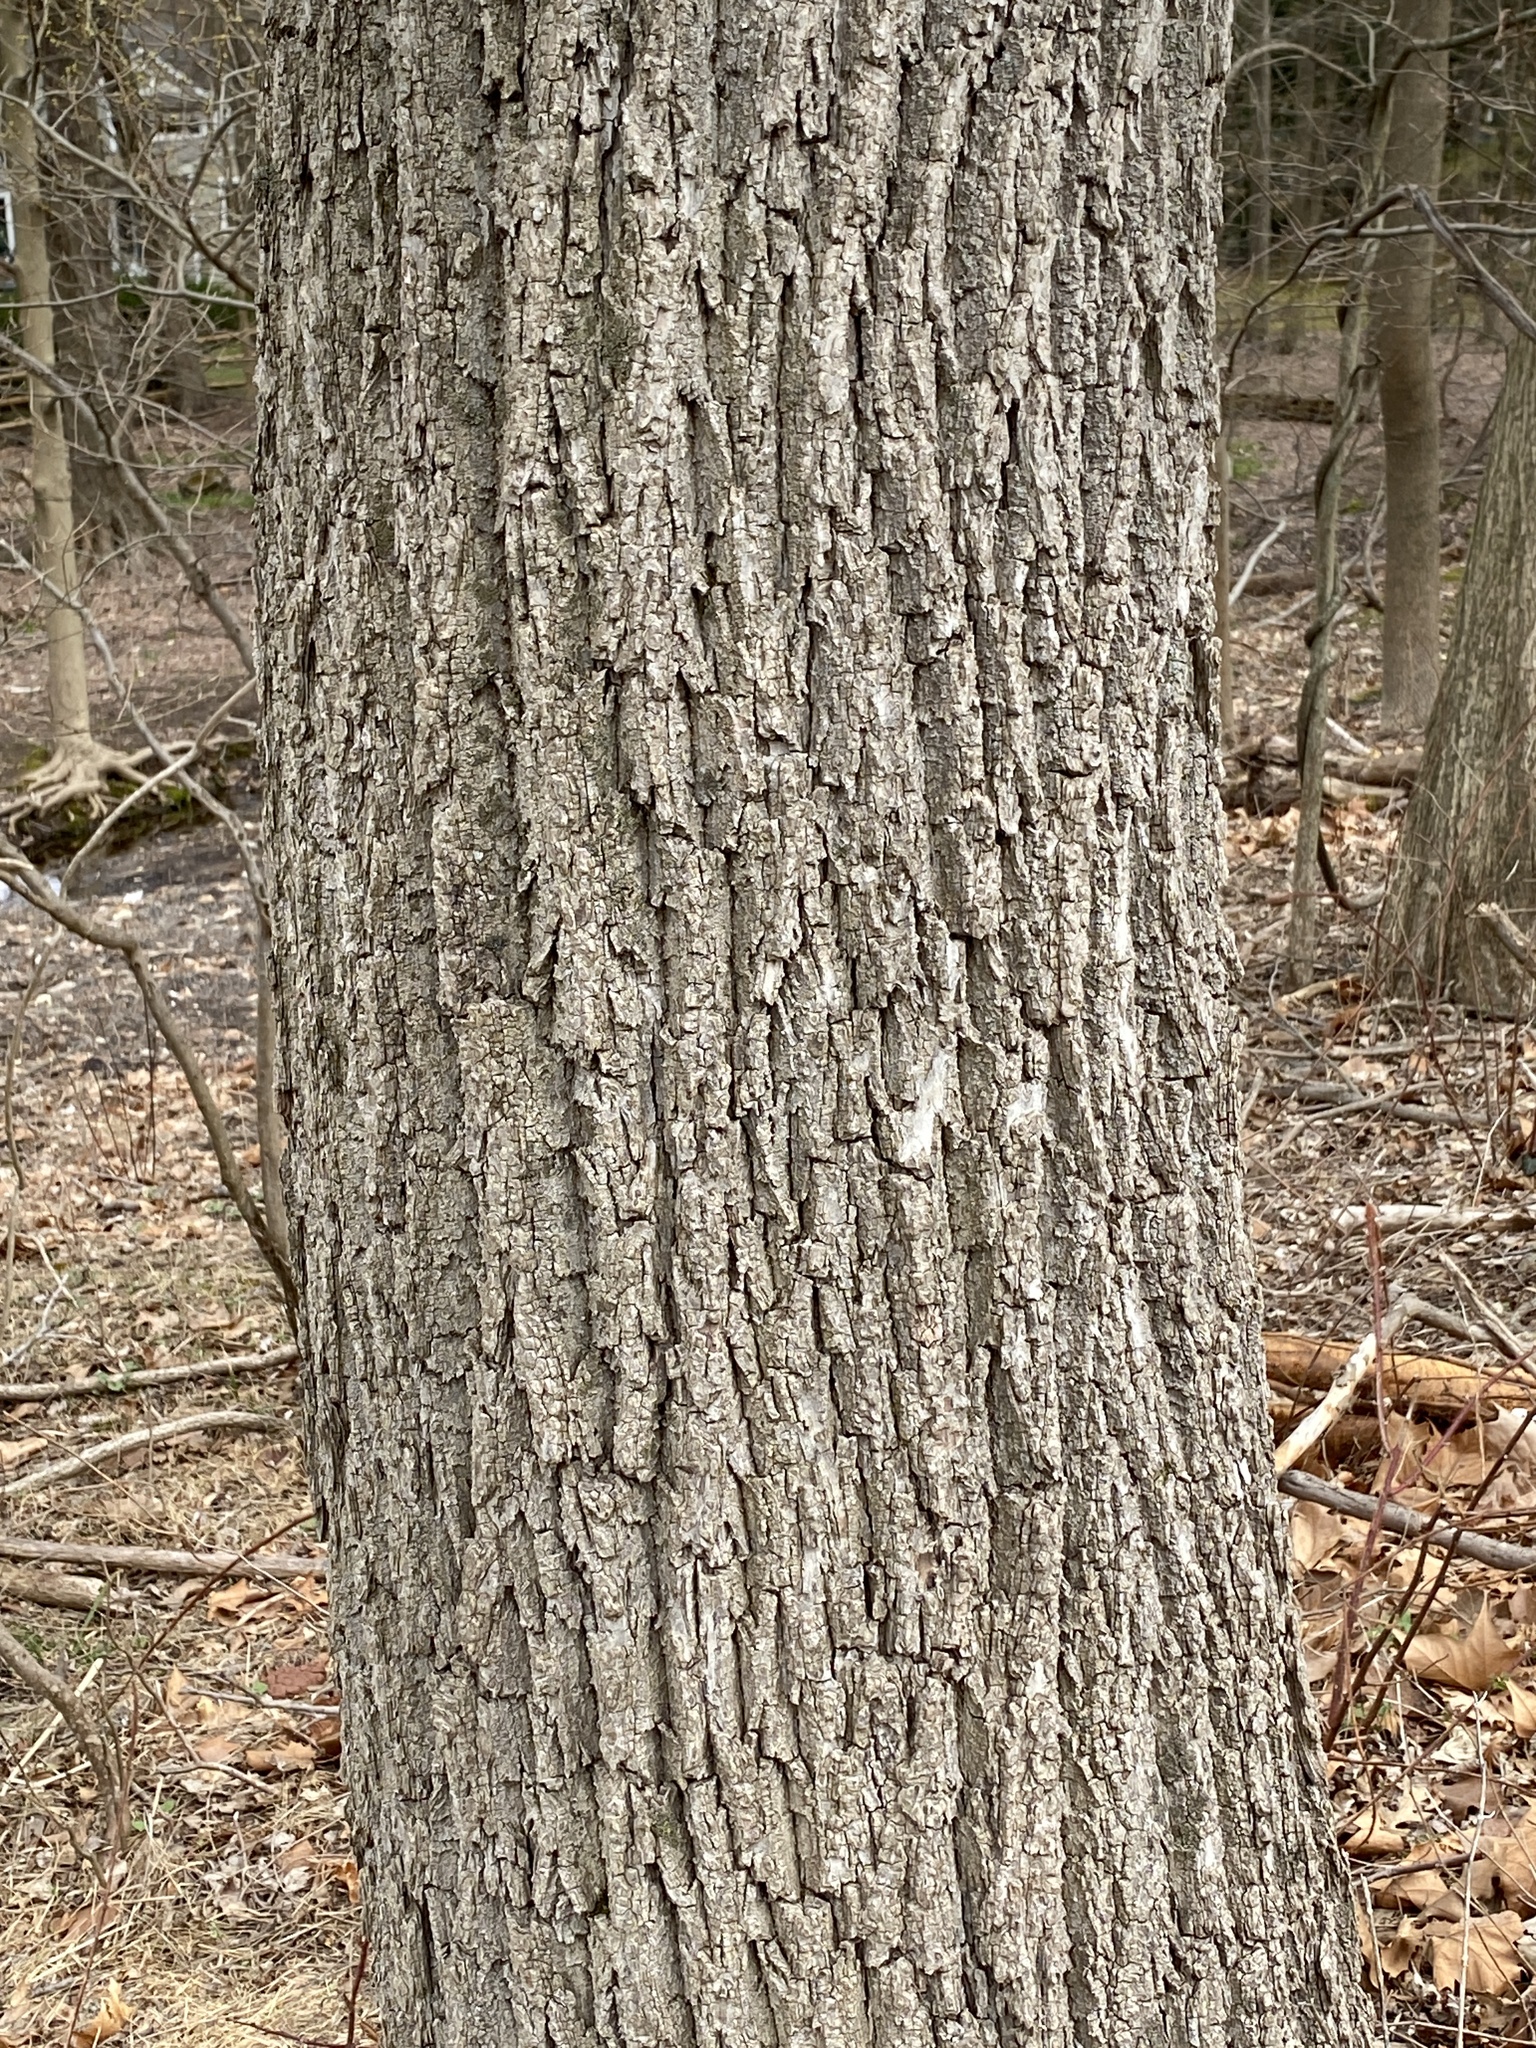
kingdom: Plantae
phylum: Tracheophyta
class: Magnoliopsida
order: Fagales
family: Juglandaceae
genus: Juglans
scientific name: Juglans nigra
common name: Black walnut
